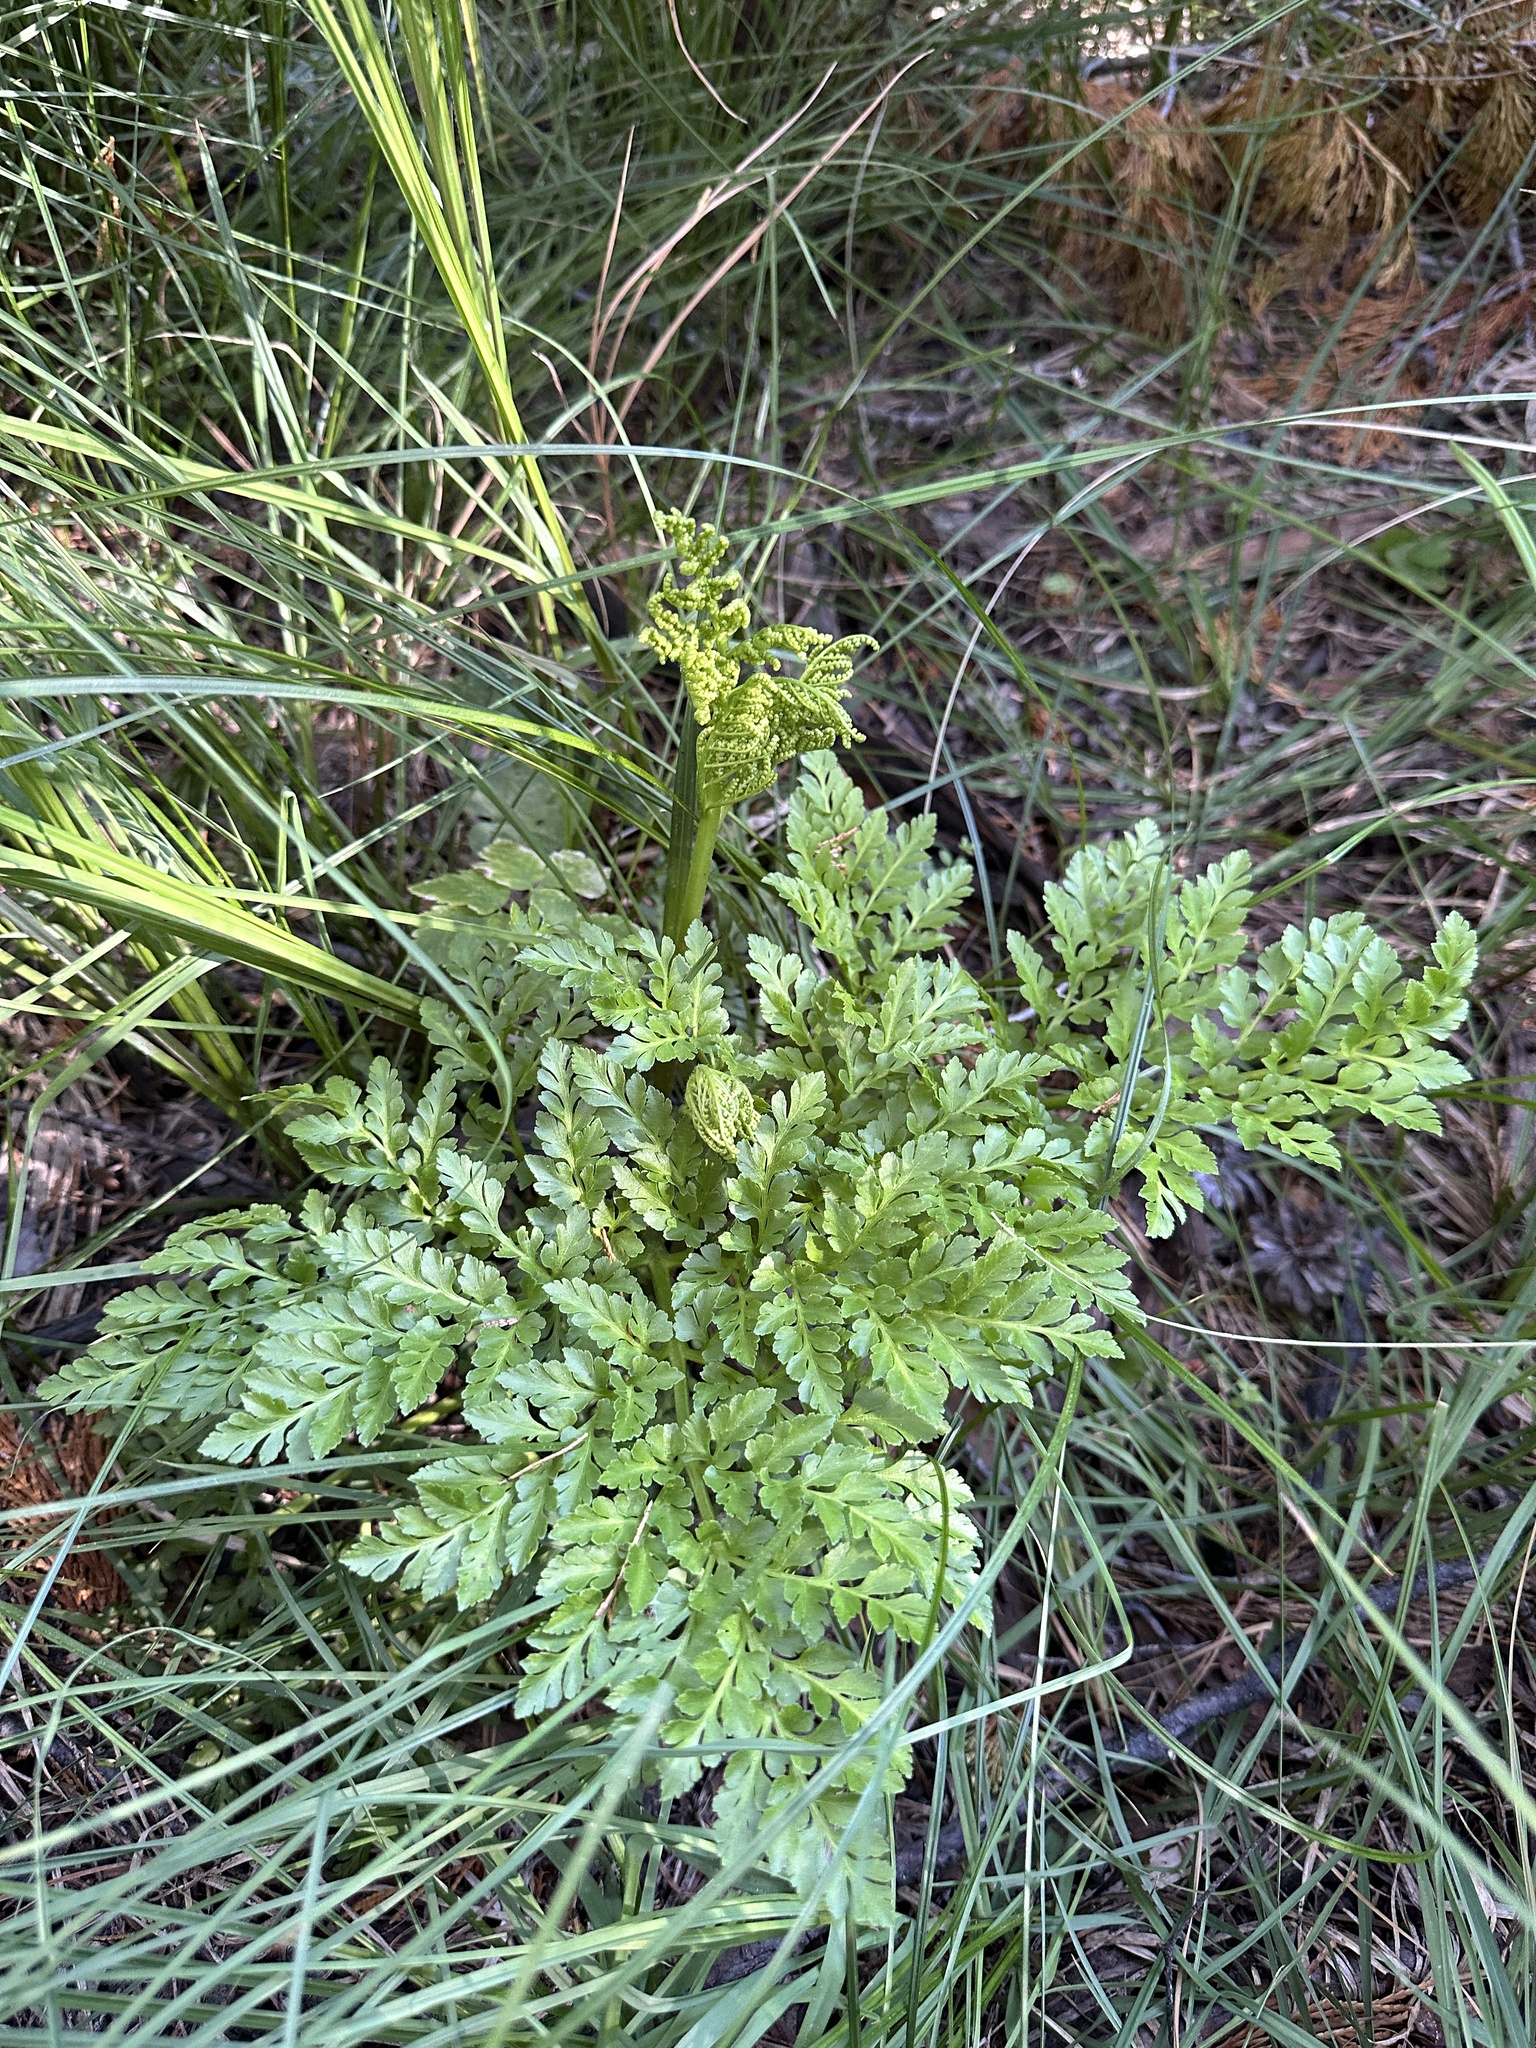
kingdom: Plantae
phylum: Tracheophyta
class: Polypodiopsida
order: Ophioglossales
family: Ophioglossaceae
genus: Sceptridium
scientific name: Sceptridium multifidum
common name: Leathery grape fern
